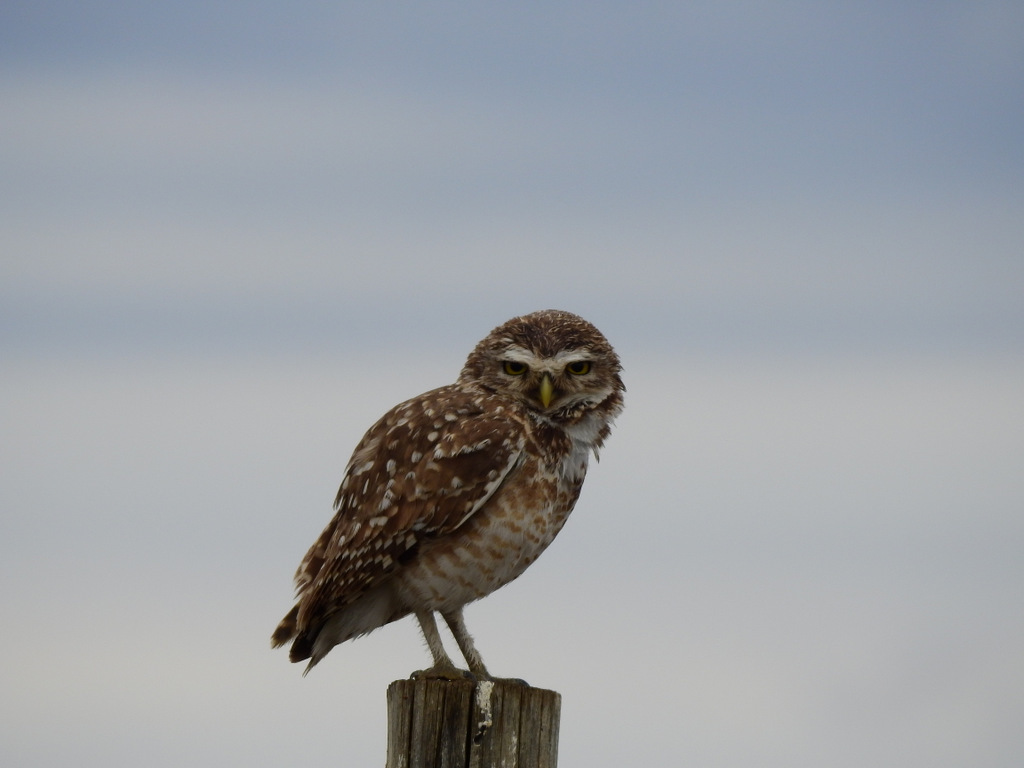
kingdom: Animalia
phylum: Chordata
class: Aves
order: Strigiformes
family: Strigidae
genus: Athene
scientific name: Athene cunicularia
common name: Burrowing owl
